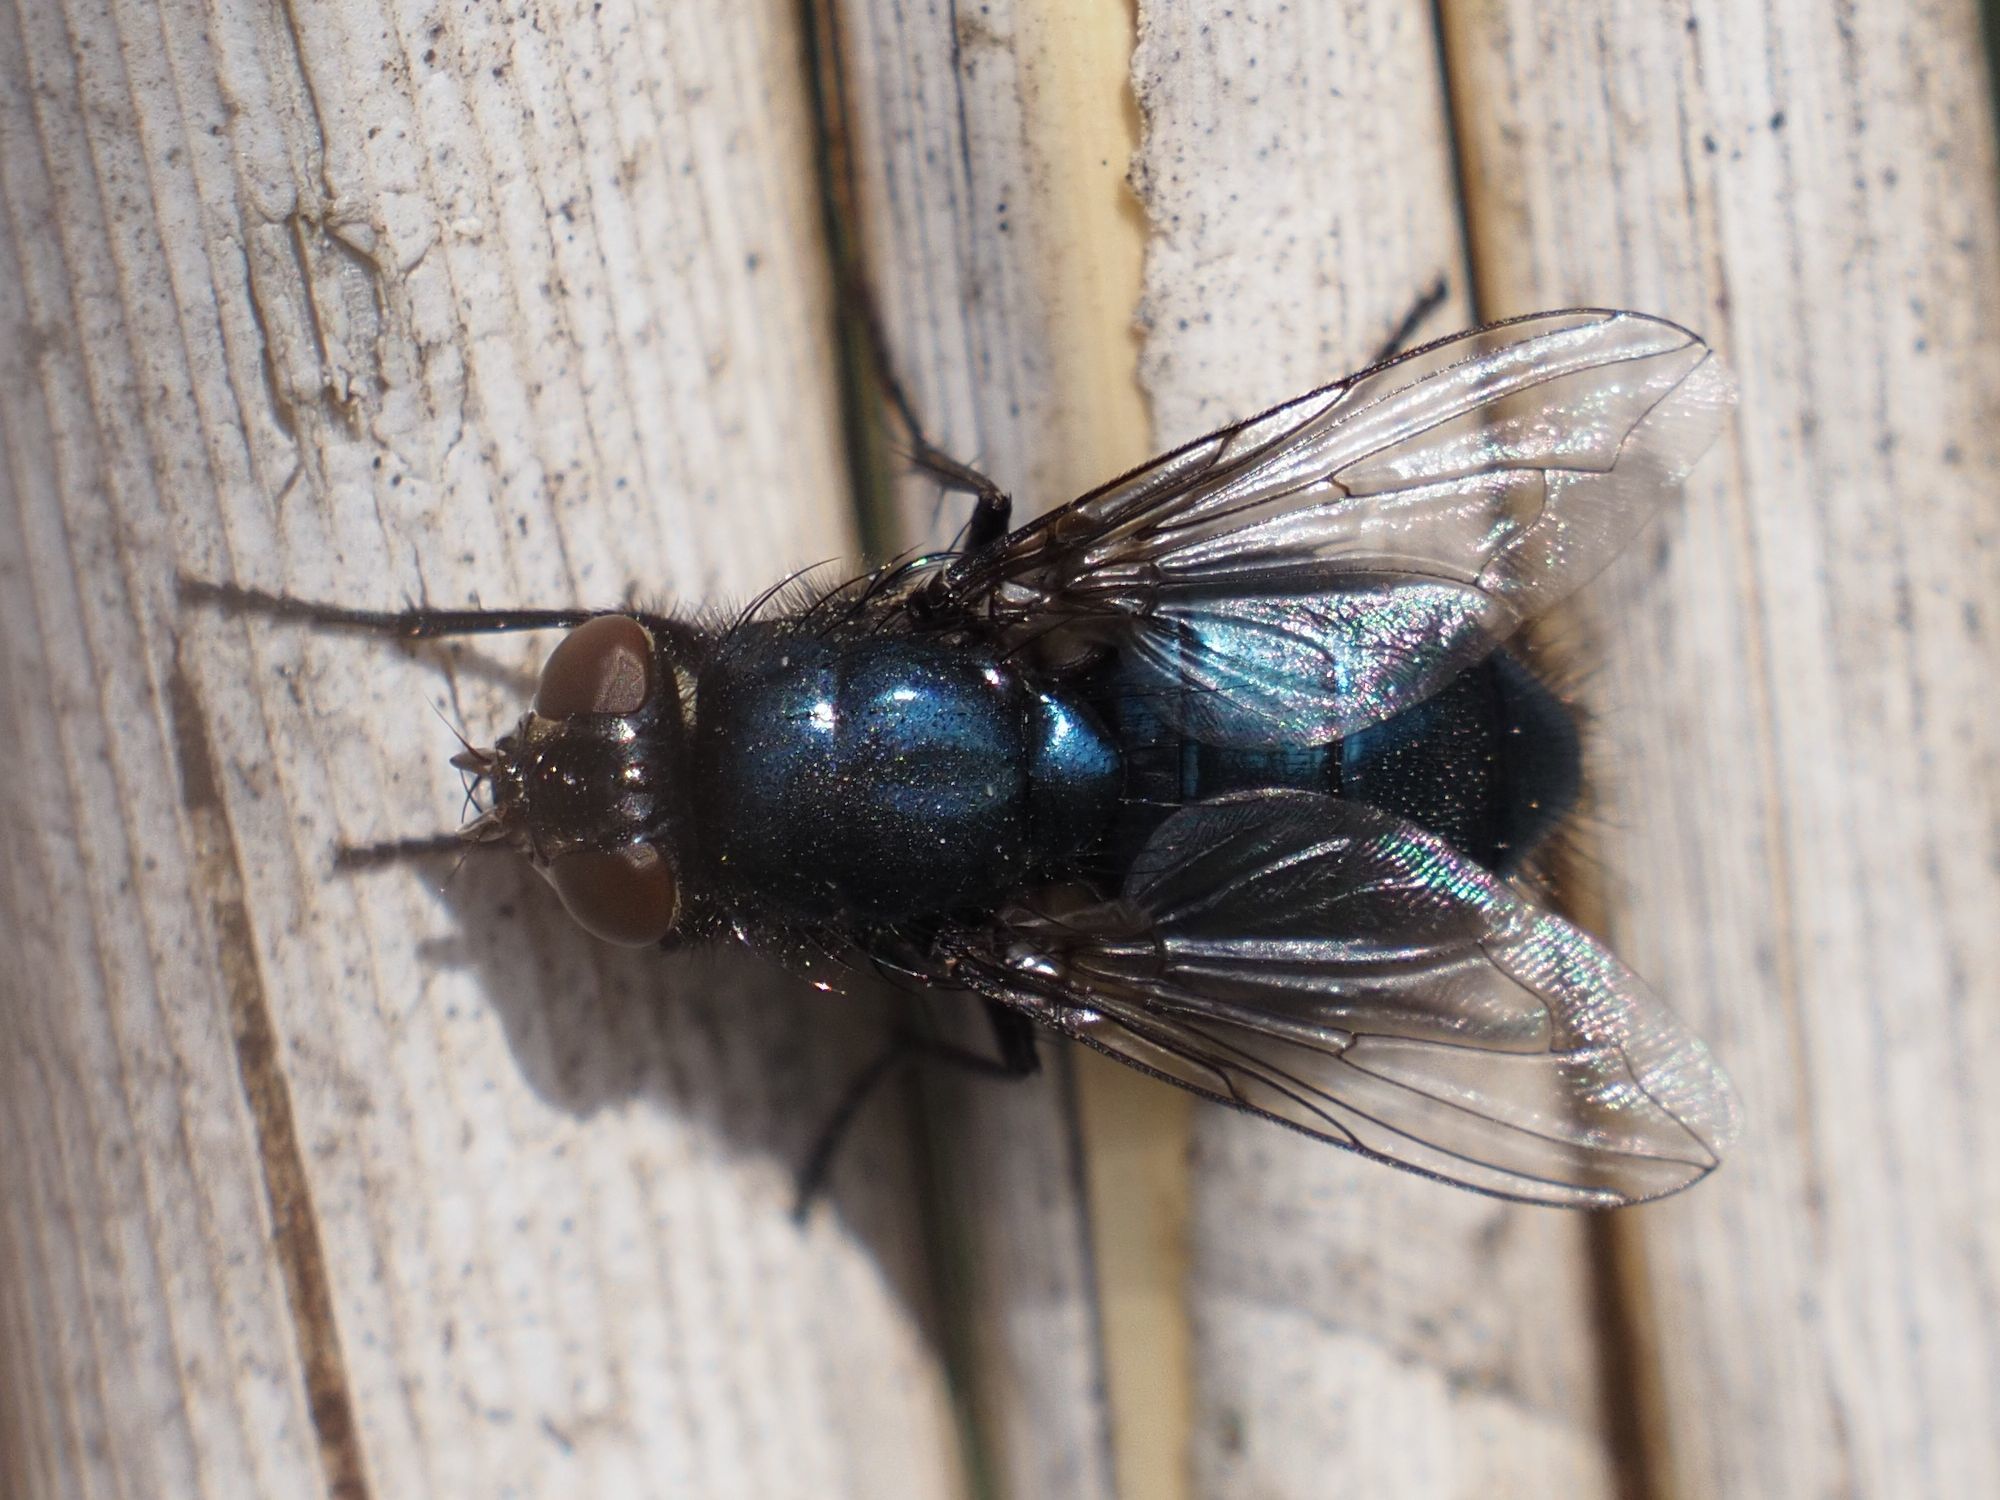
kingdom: Animalia
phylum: Arthropoda
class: Insecta
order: Diptera
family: Calliphoridae
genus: Protophormia
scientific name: Protophormia terraenovae
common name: Blackbottle
